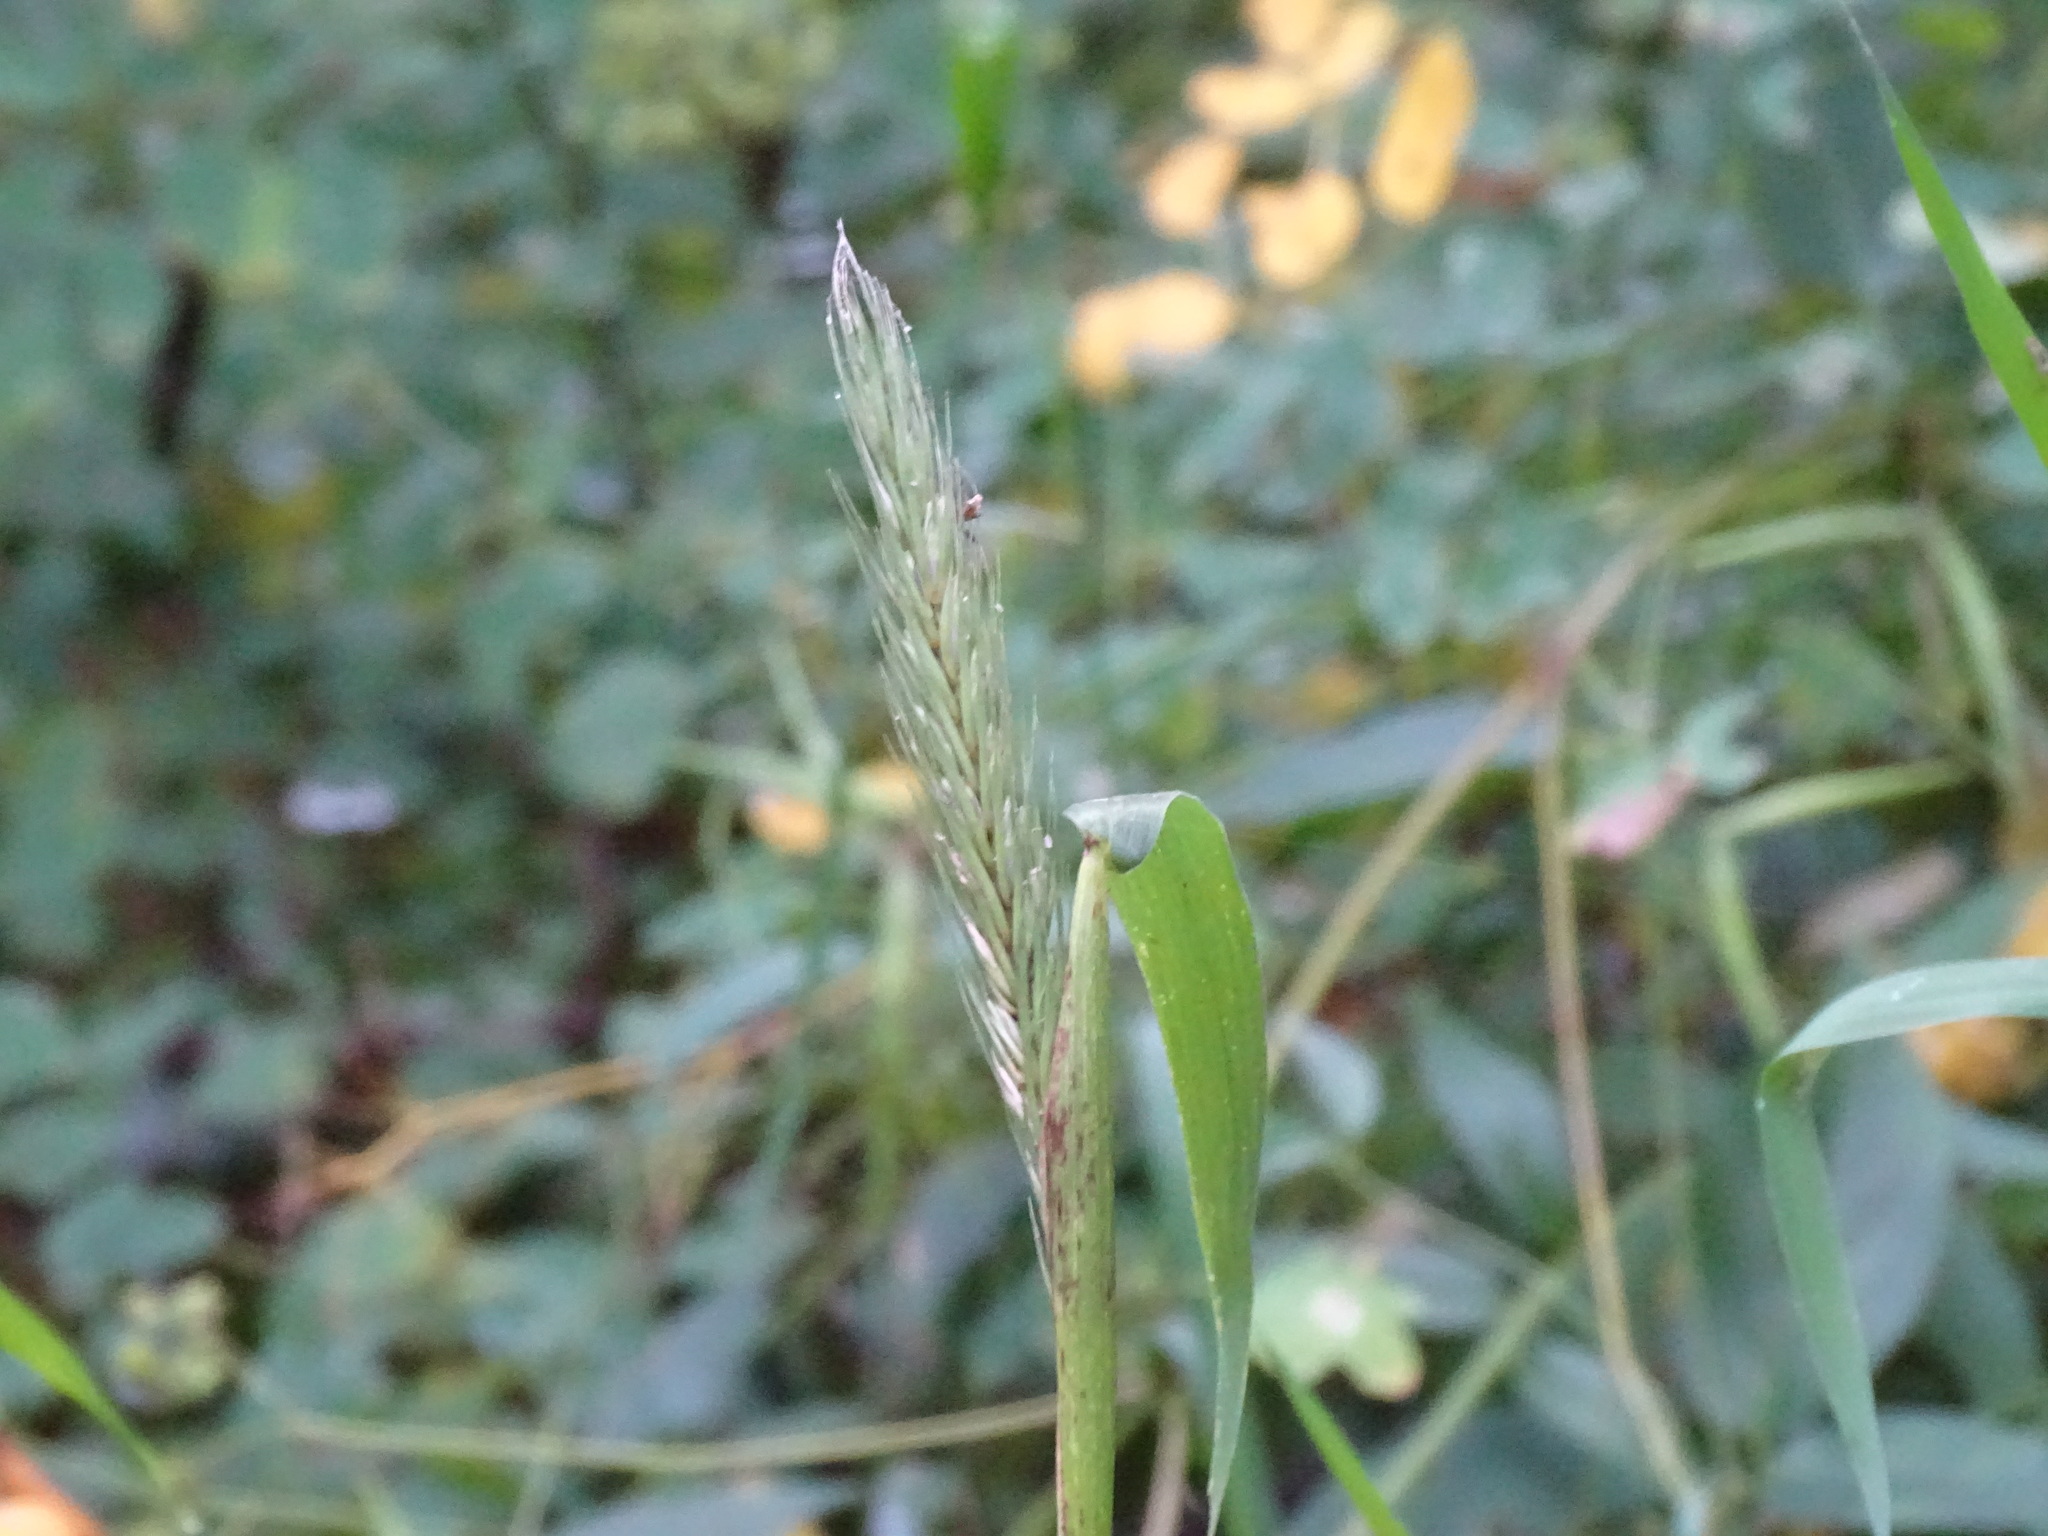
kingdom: Plantae
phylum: Tracheophyta
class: Liliopsida
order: Poales
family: Poaceae
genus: Elymus
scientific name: Elymus virginicus
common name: Common eastern wildrye
